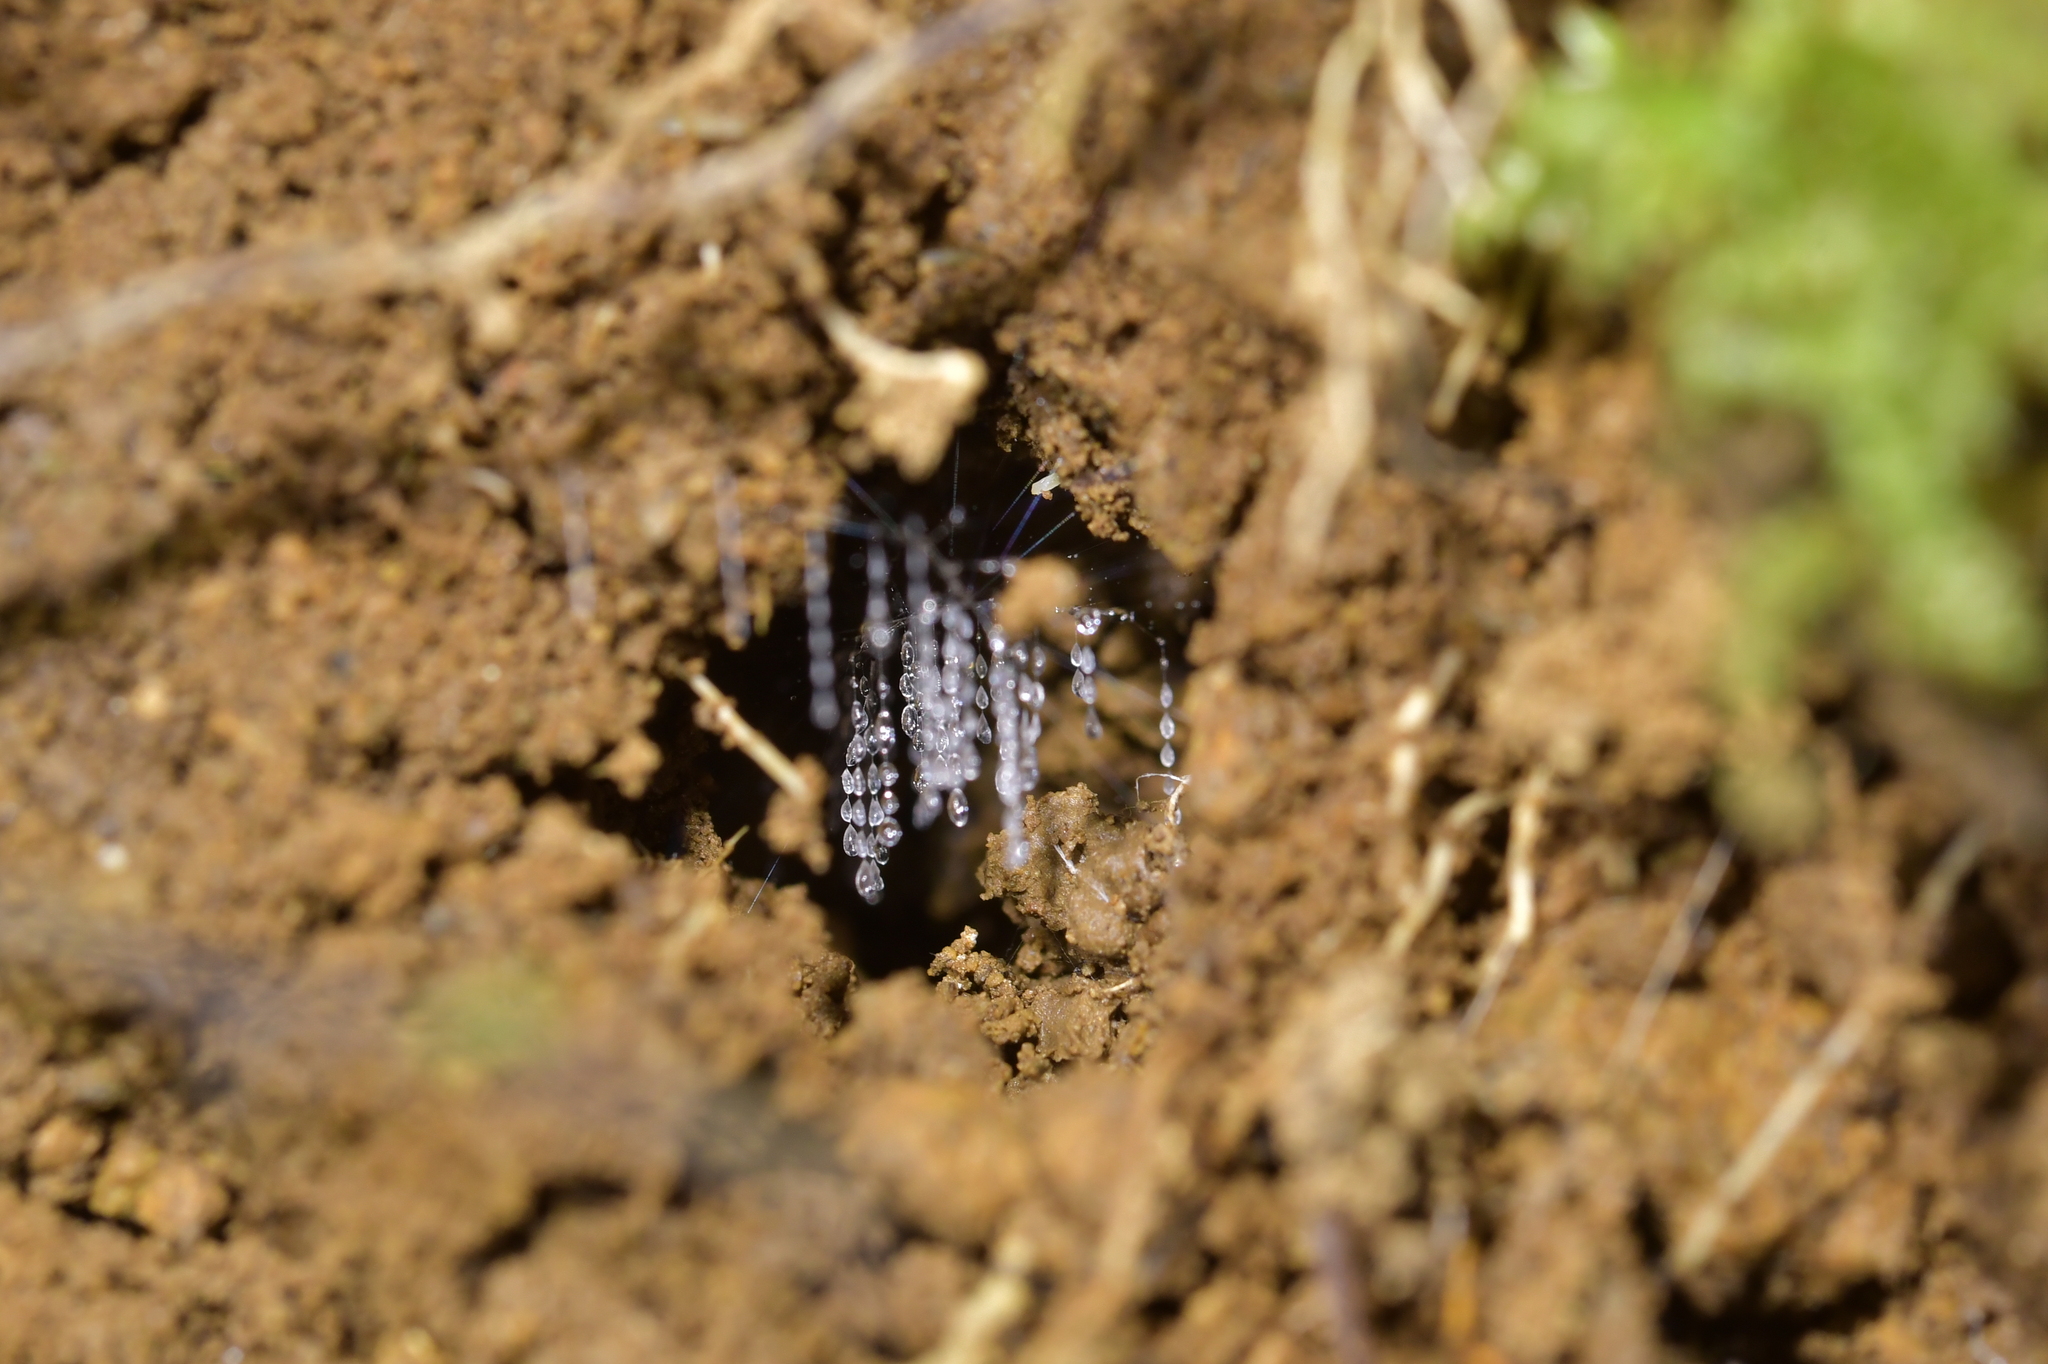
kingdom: Animalia
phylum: Arthropoda
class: Insecta
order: Diptera
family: Keroplatidae
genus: Arachnocampa
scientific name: Arachnocampa luminosa
